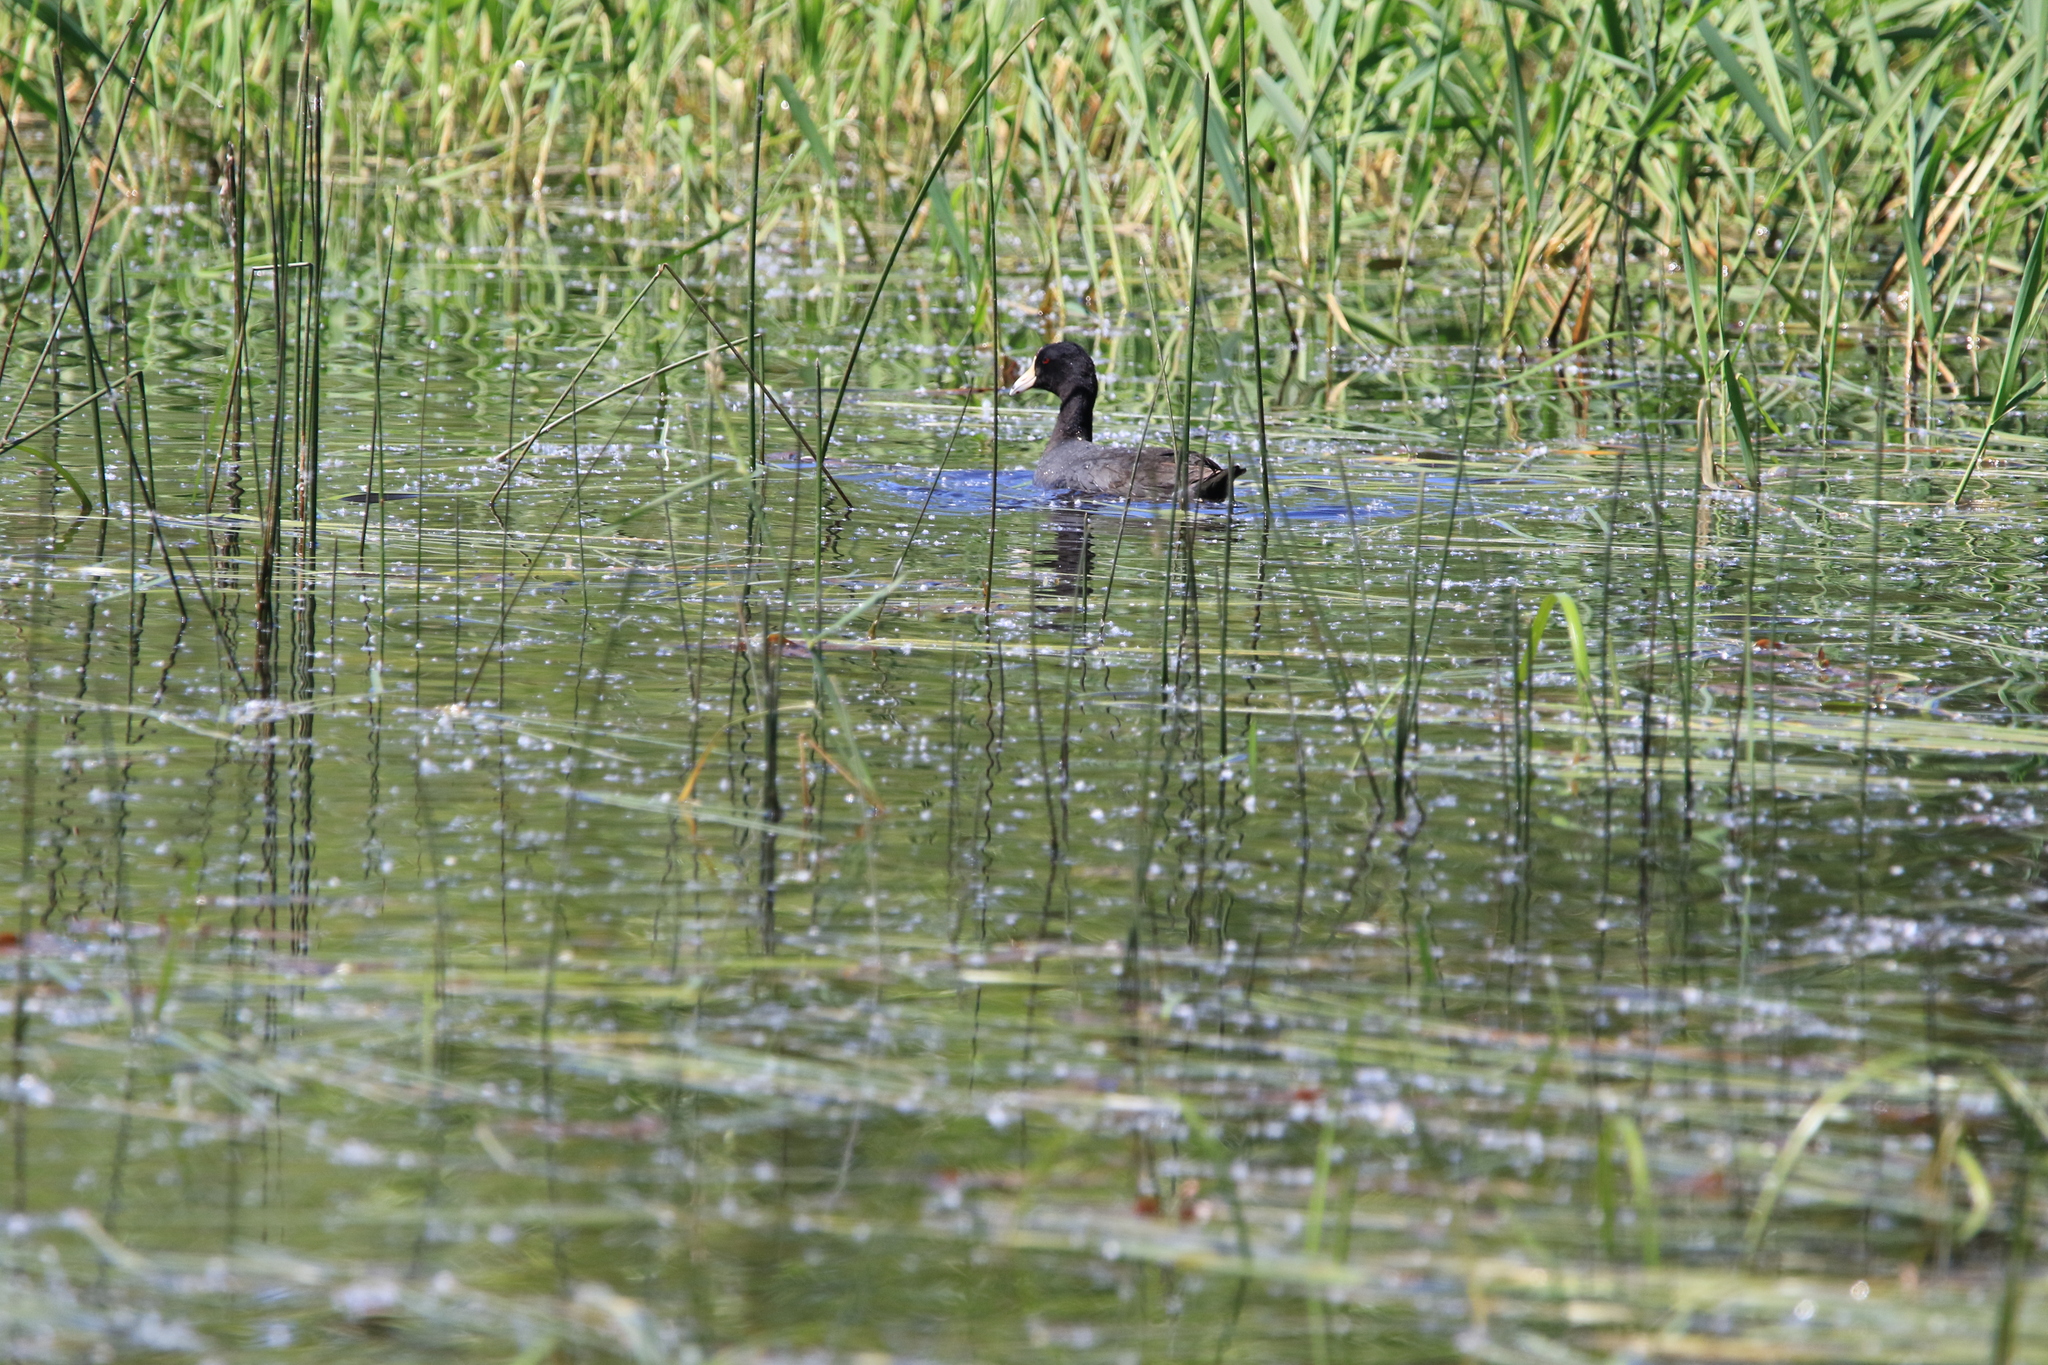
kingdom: Animalia
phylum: Chordata
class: Aves
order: Gruiformes
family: Rallidae
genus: Fulica
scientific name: Fulica americana
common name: American coot
